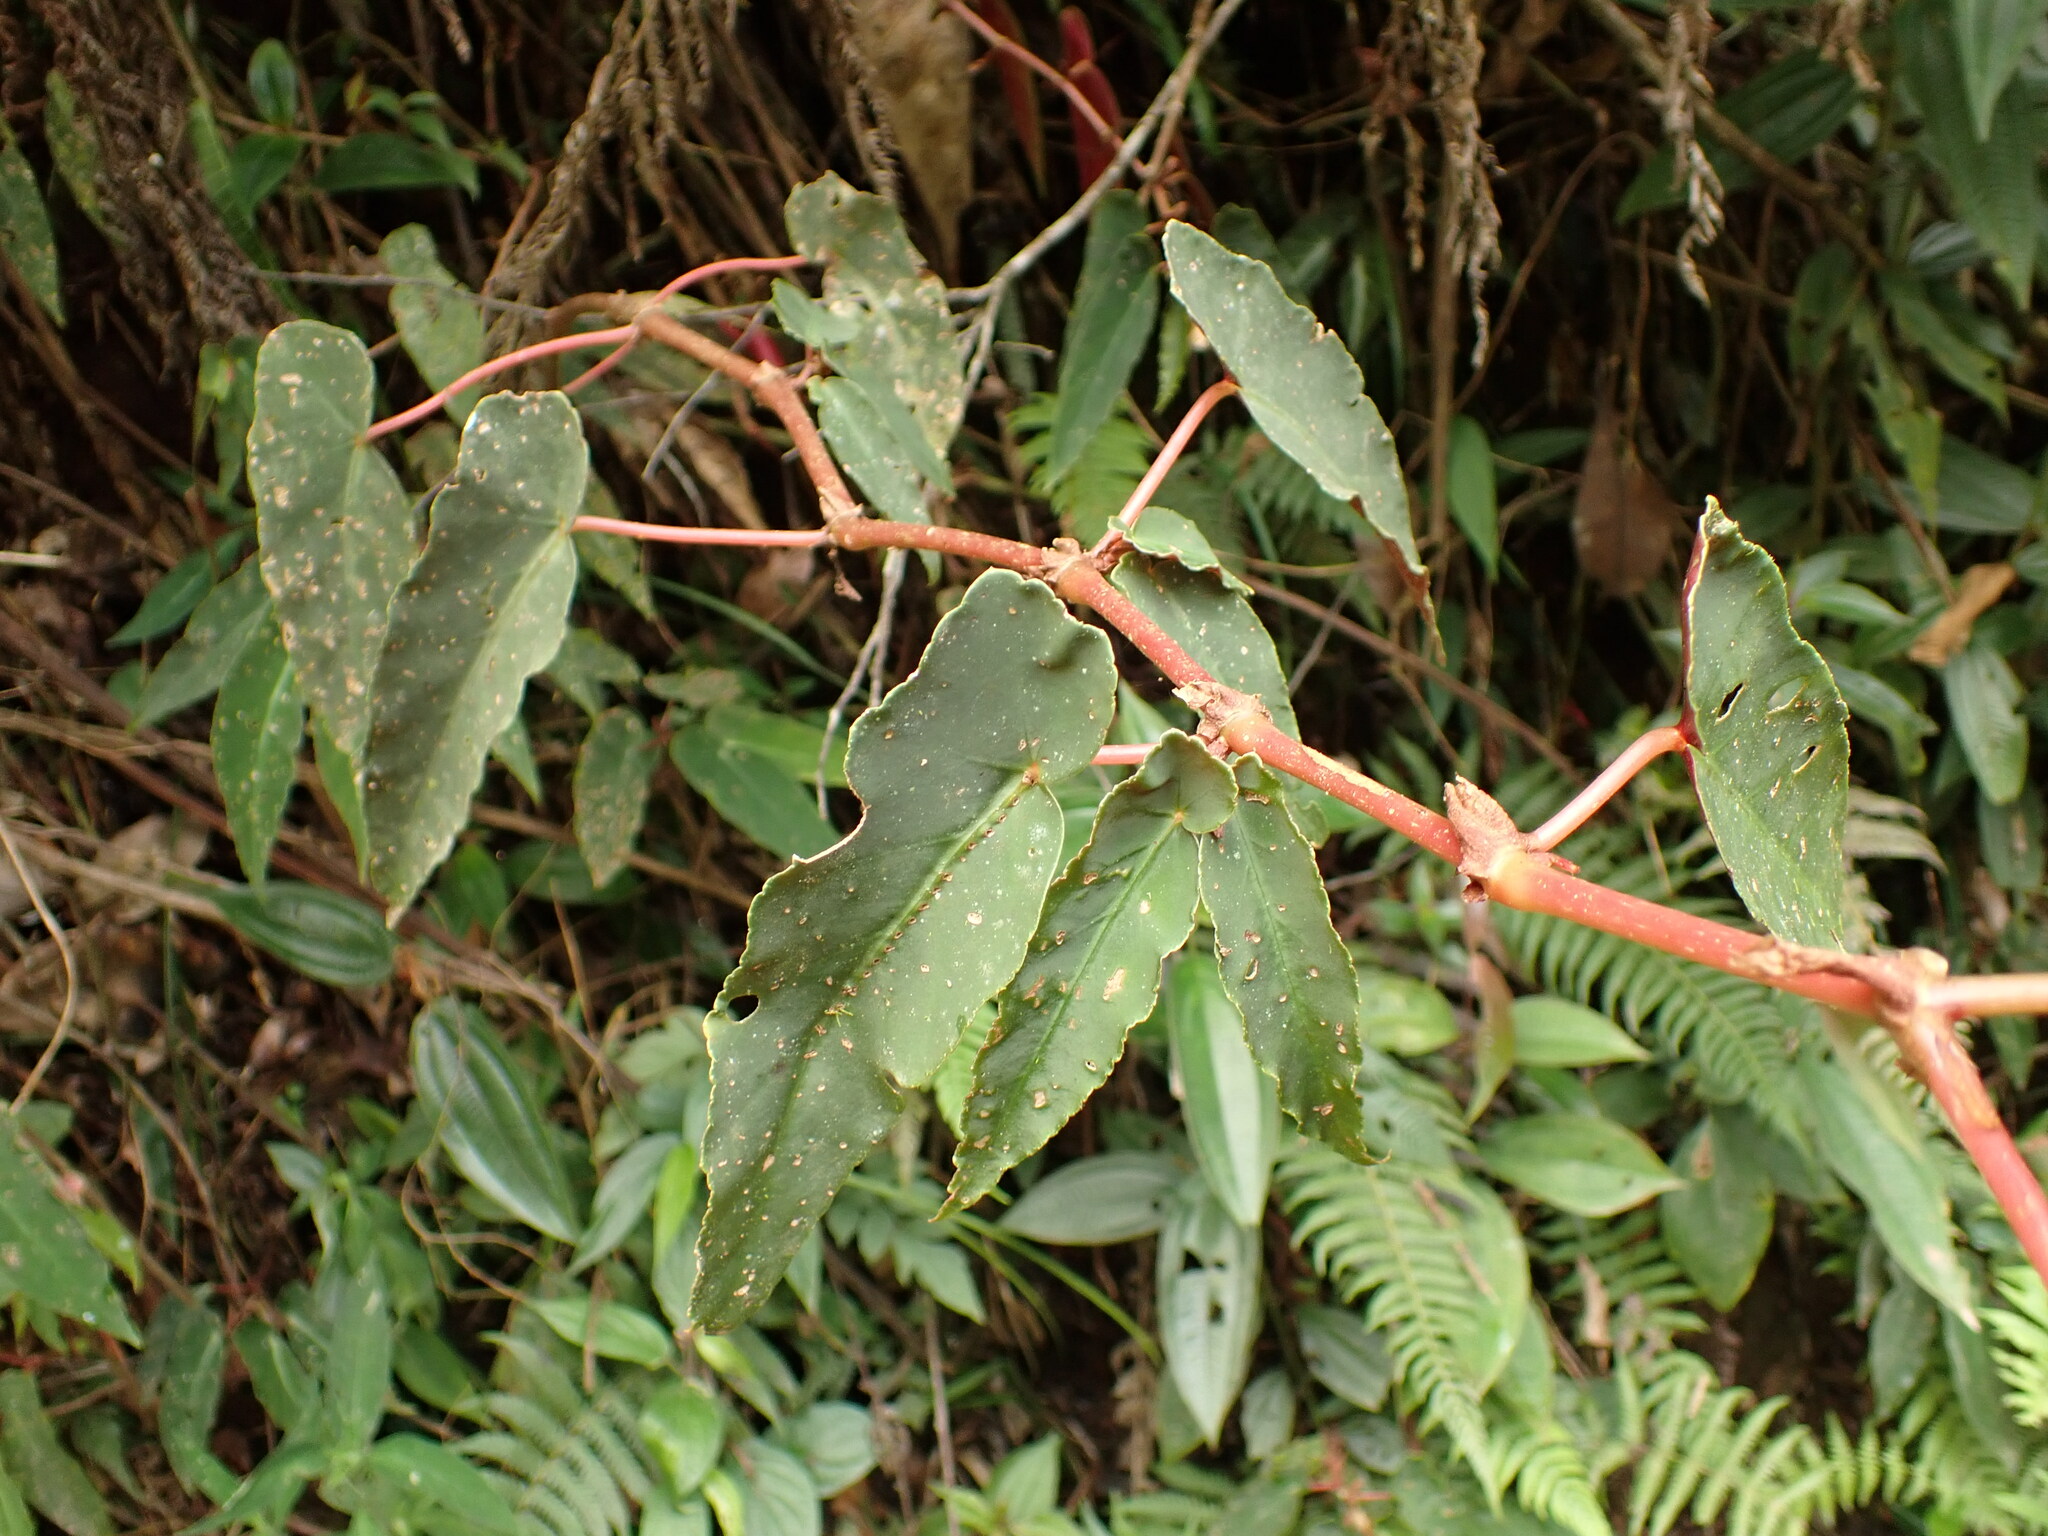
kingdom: Plantae
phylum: Tracheophyta
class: Magnoliopsida
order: Cucurbitales
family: Begoniaceae
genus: Begonia
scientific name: Begonia angularis
